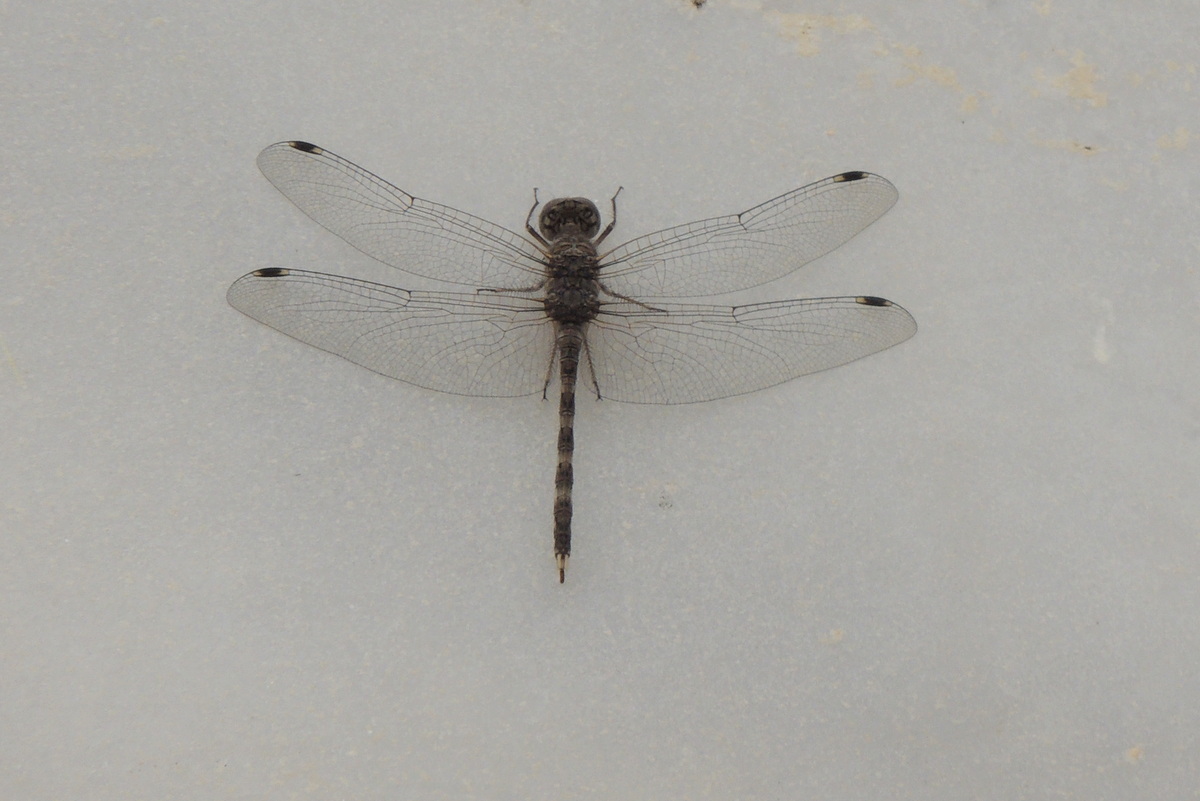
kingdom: Animalia
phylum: Arthropoda
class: Insecta
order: Odonata
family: Libellulidae
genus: Bradinopyga
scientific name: Bradinopyga geminata
